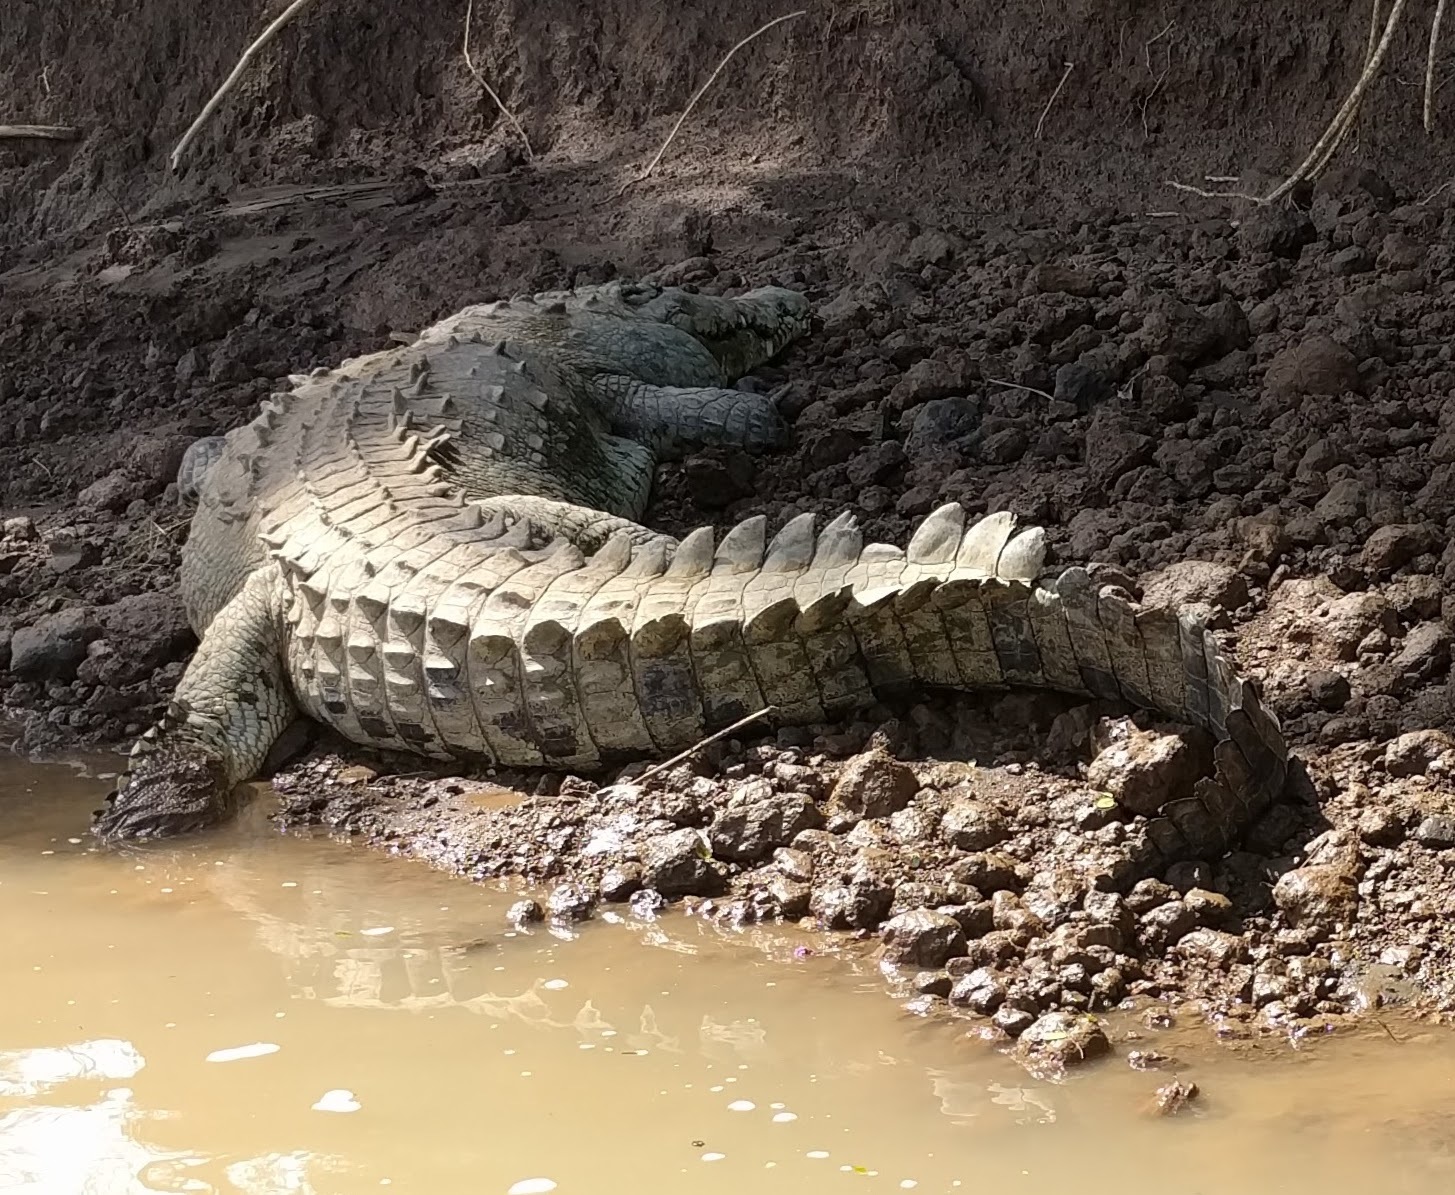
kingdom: Animalia
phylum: Chordata
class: Crocodylia
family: Crocodylidae
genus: Crocodylus
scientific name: Crocodylus acutus
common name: American crocodile
